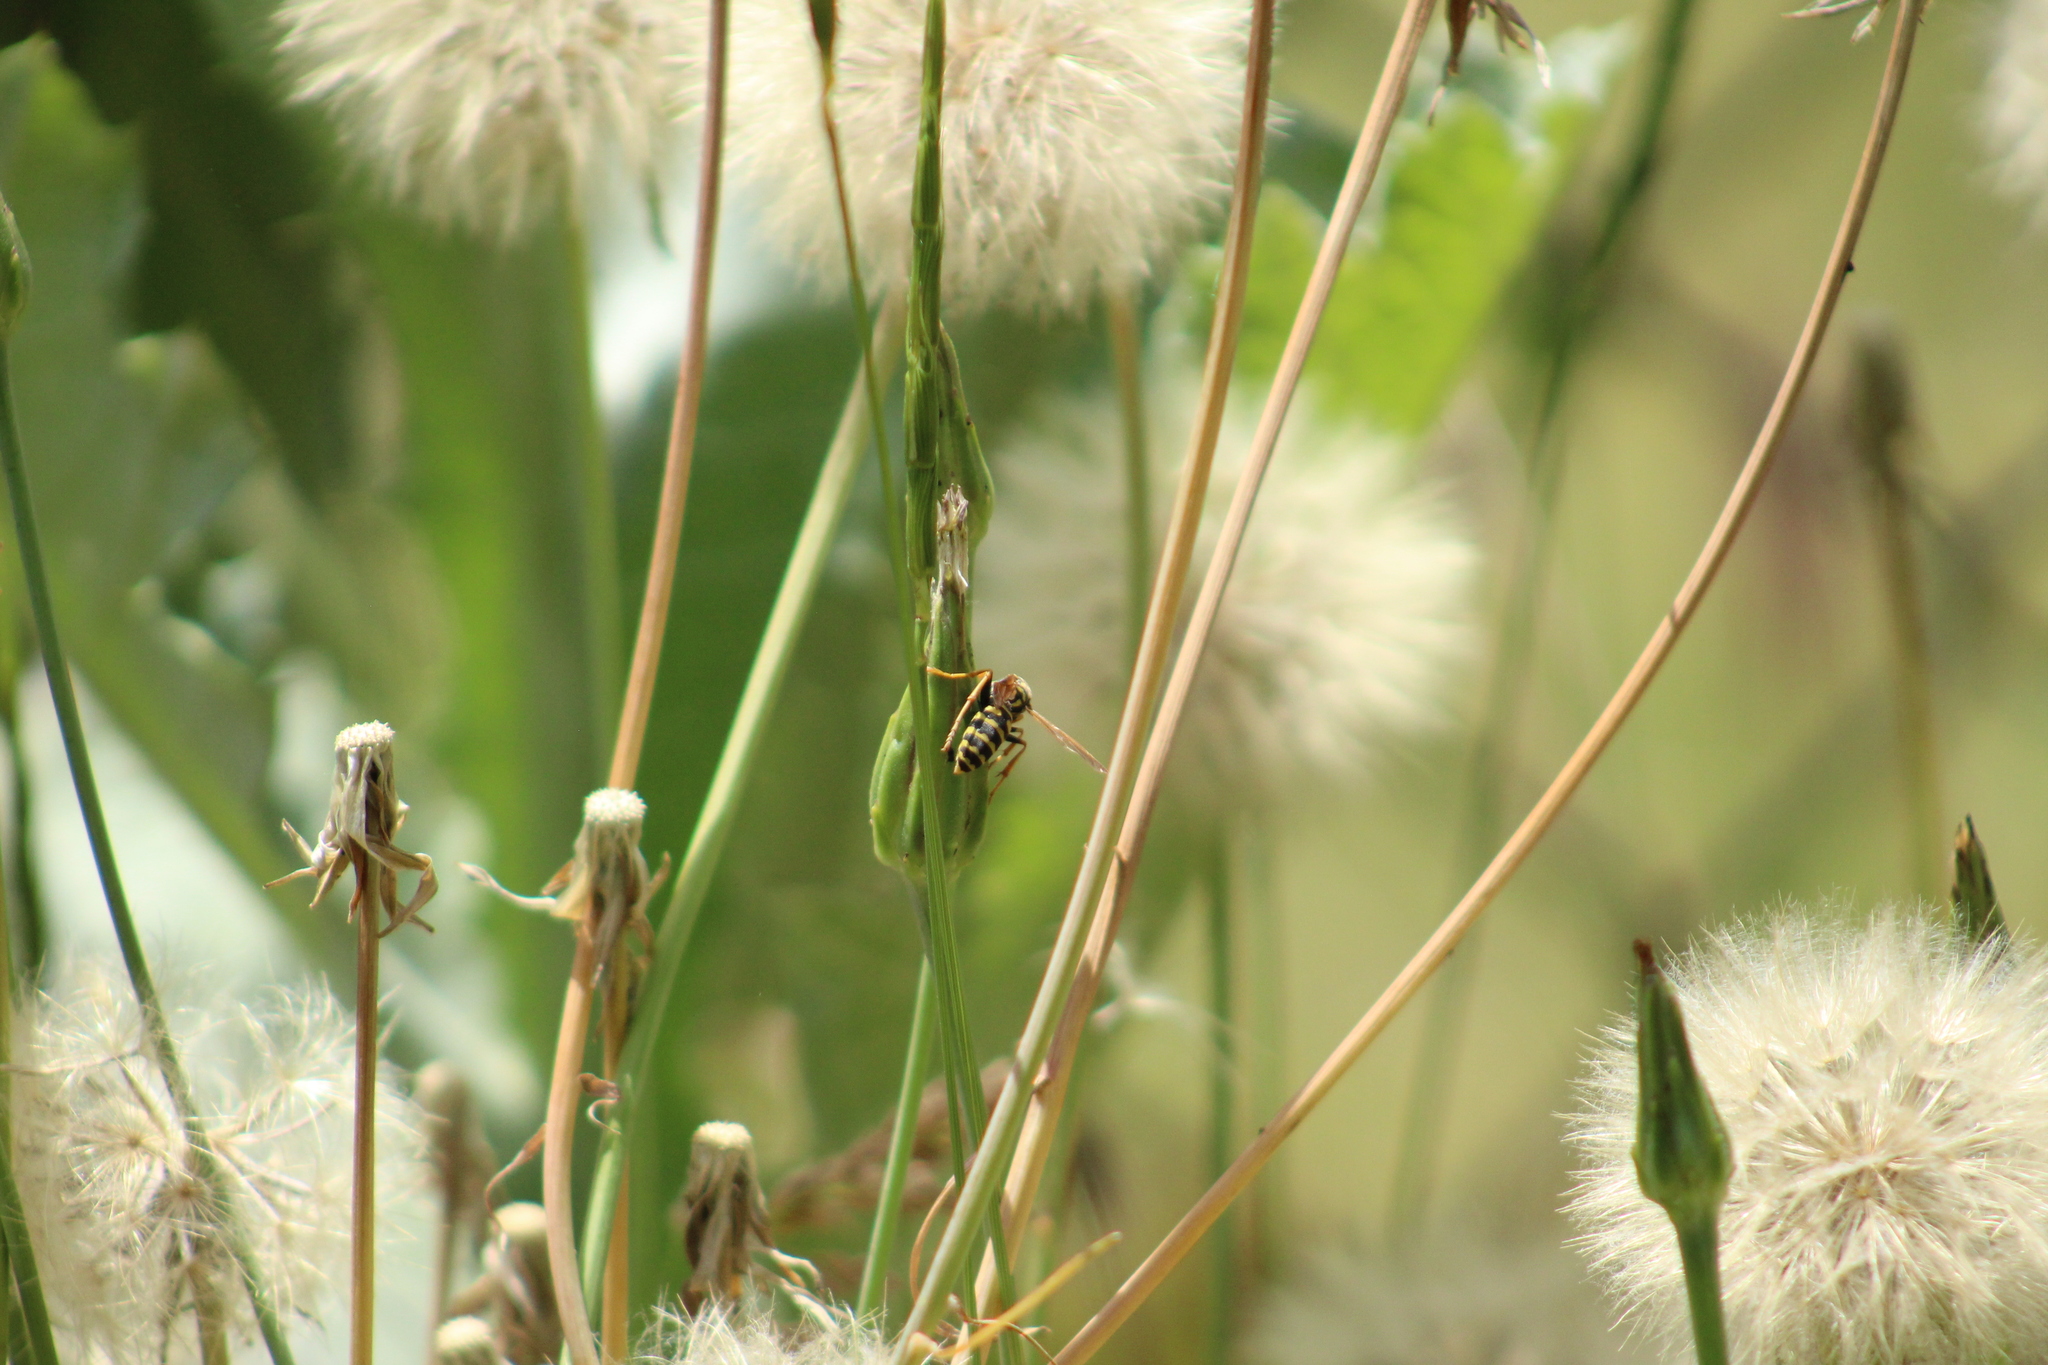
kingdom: Animalia
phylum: Arthropoda
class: Insecta
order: Hymenoptera
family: Eumenidae
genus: Polistes
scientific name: Polistes dominula
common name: Paper wasp
